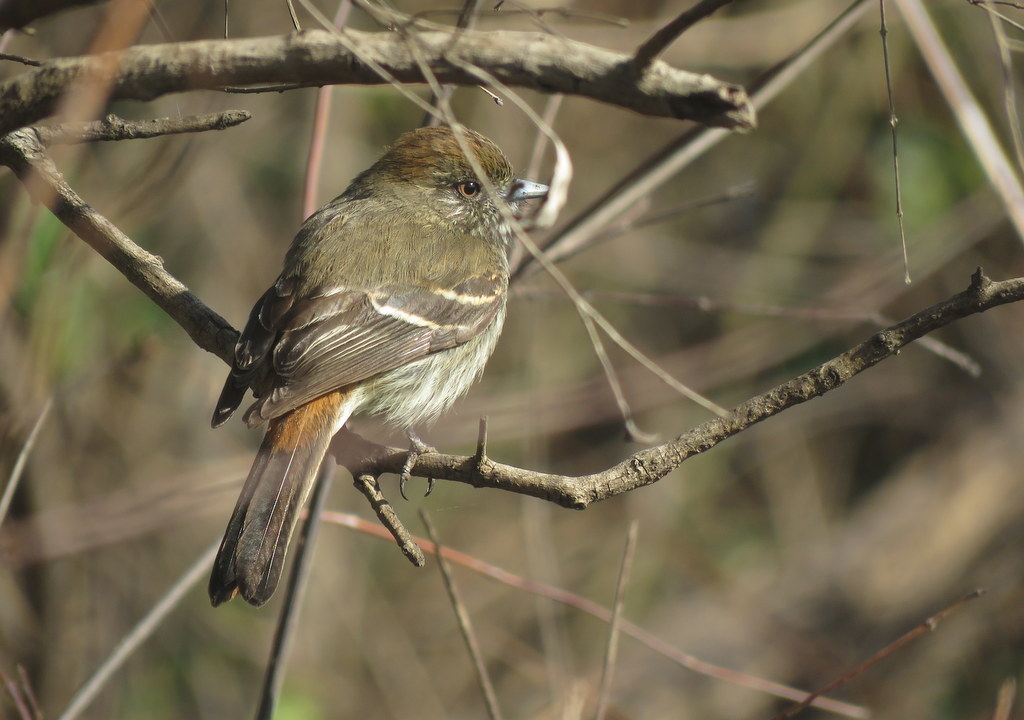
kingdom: Animalia
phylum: Chordata
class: Aves
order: Passeriformes
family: Tyrannidae
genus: Knipolegus
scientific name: Knipolegus cyanirostris
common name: Blue-billed black tyrant
